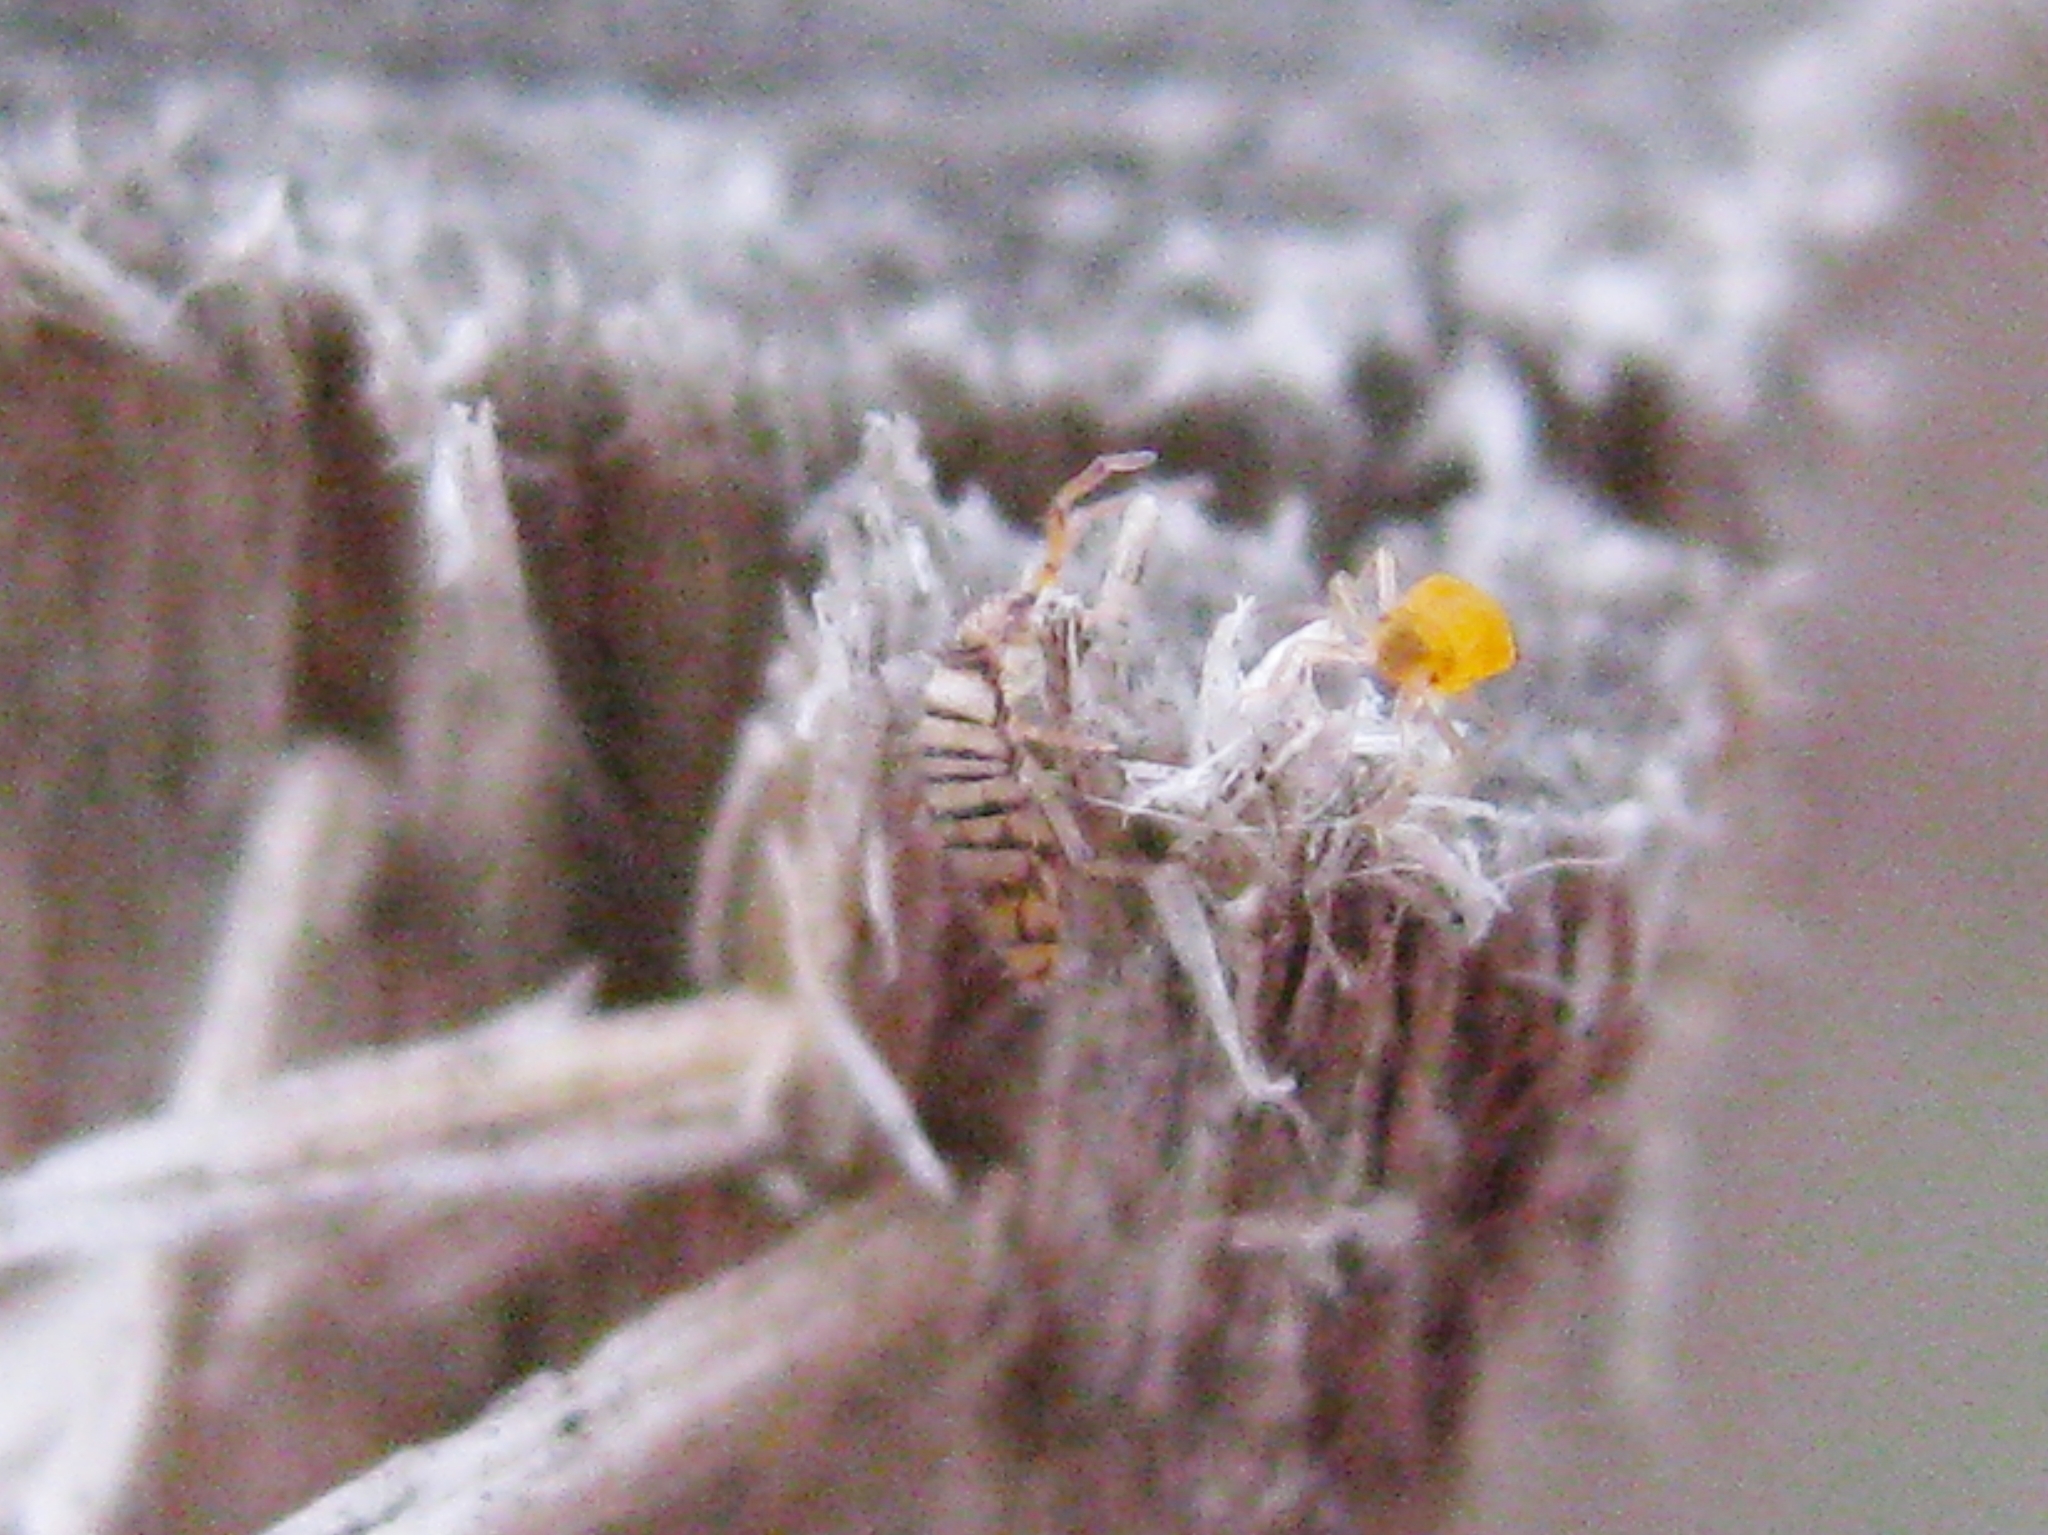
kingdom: Animalia
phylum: Arthropoda
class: Collembola
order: Entomobryomorpha
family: Entomobryidae
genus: Entomobrya
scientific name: Entomobrya atrocincta
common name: Springtail
